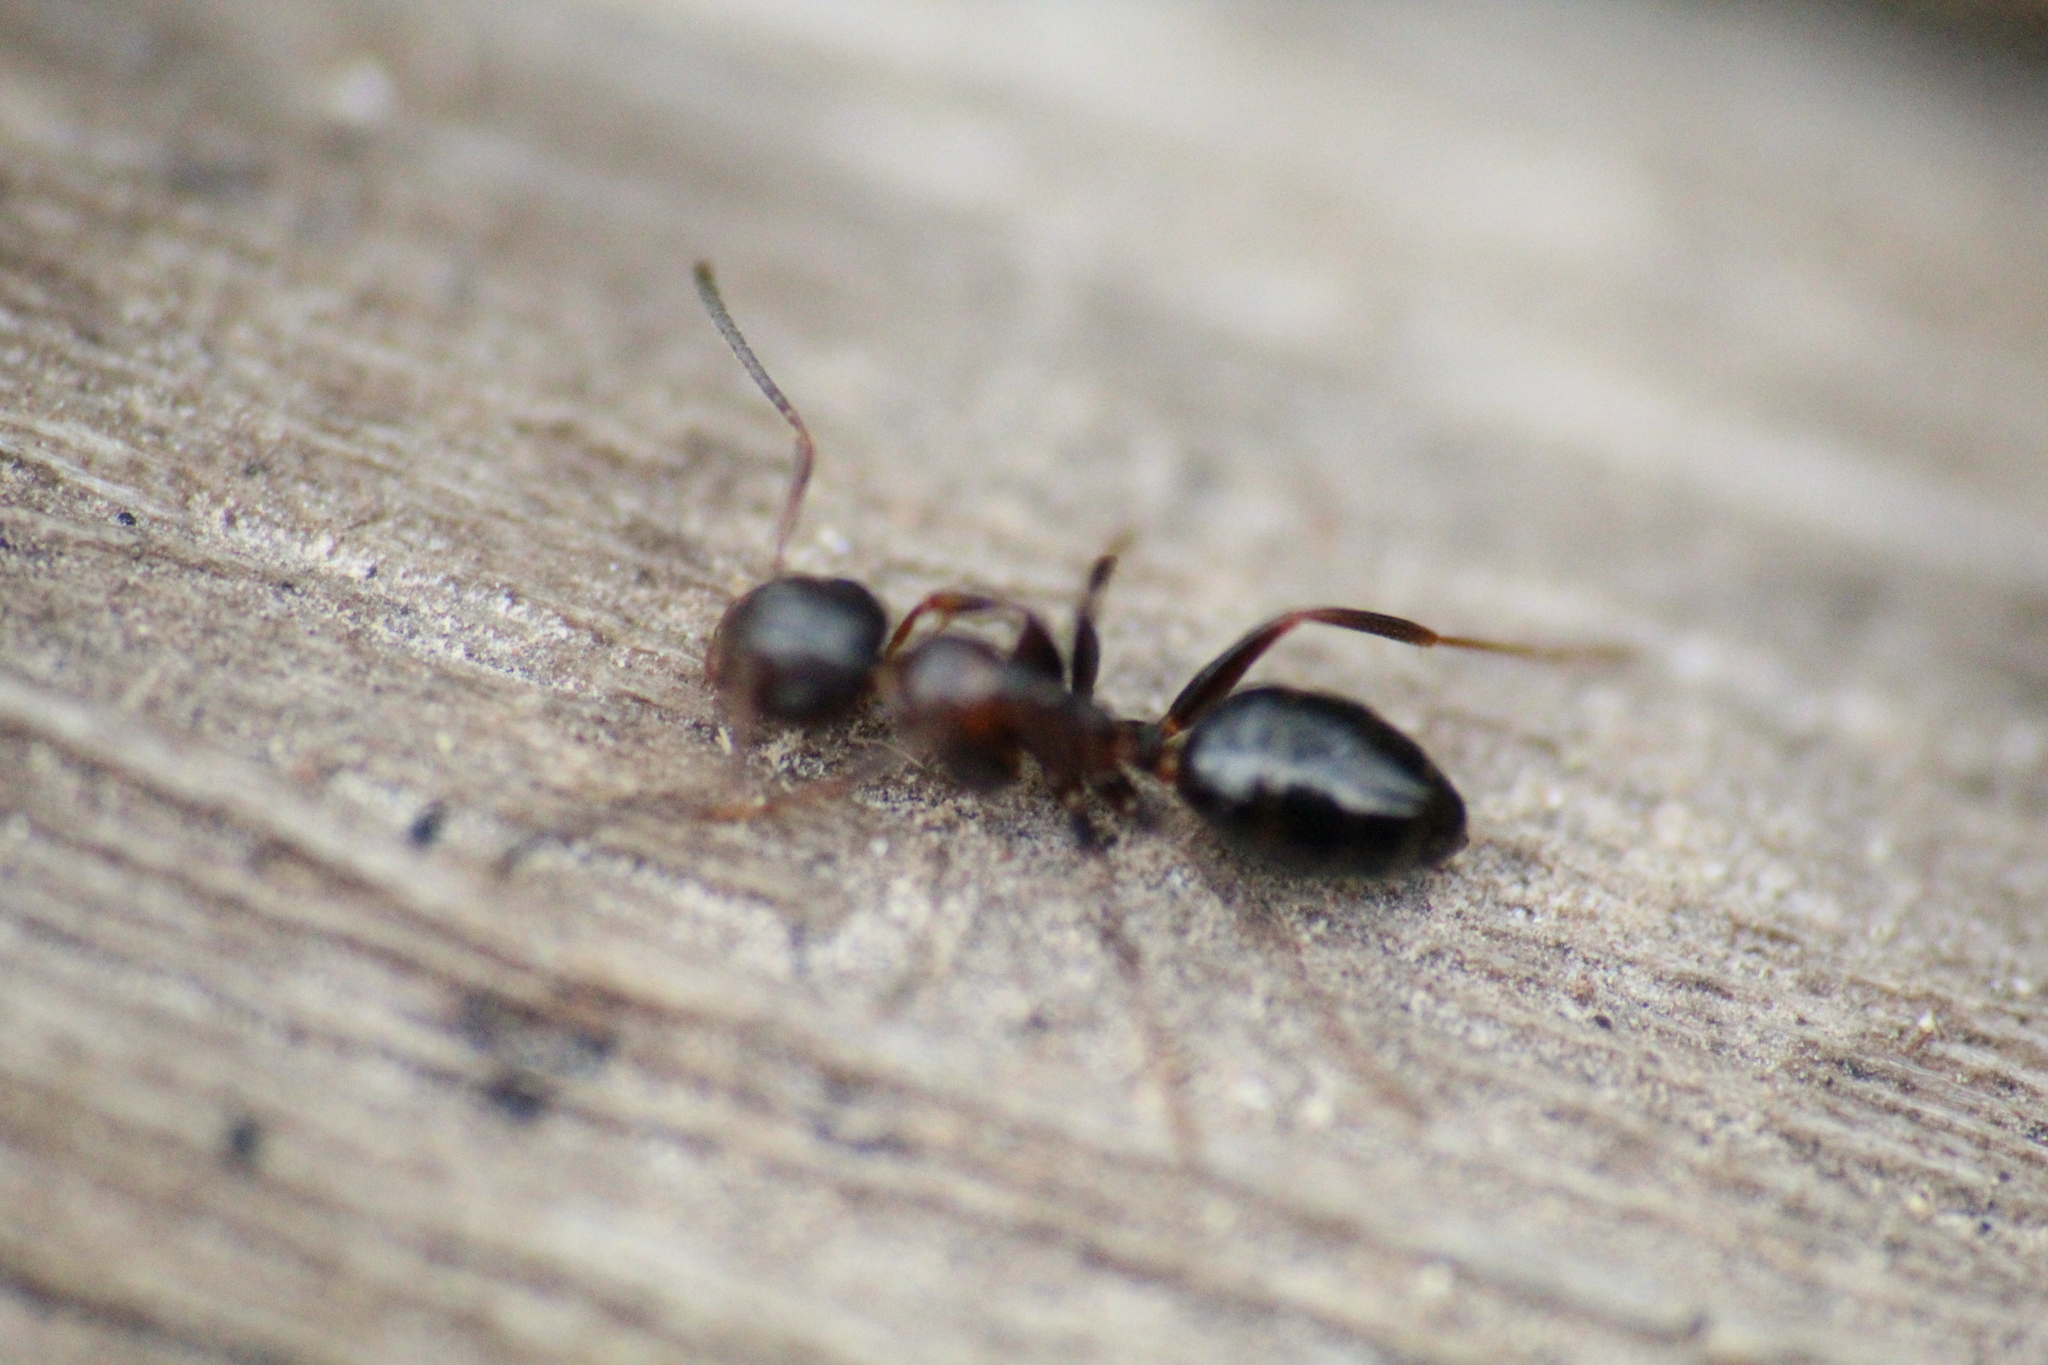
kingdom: Animalia
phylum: Arthropoda
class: Insecta
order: Hymenoptera
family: Formicidae
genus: Camponotus
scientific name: Camponotus truncatus
